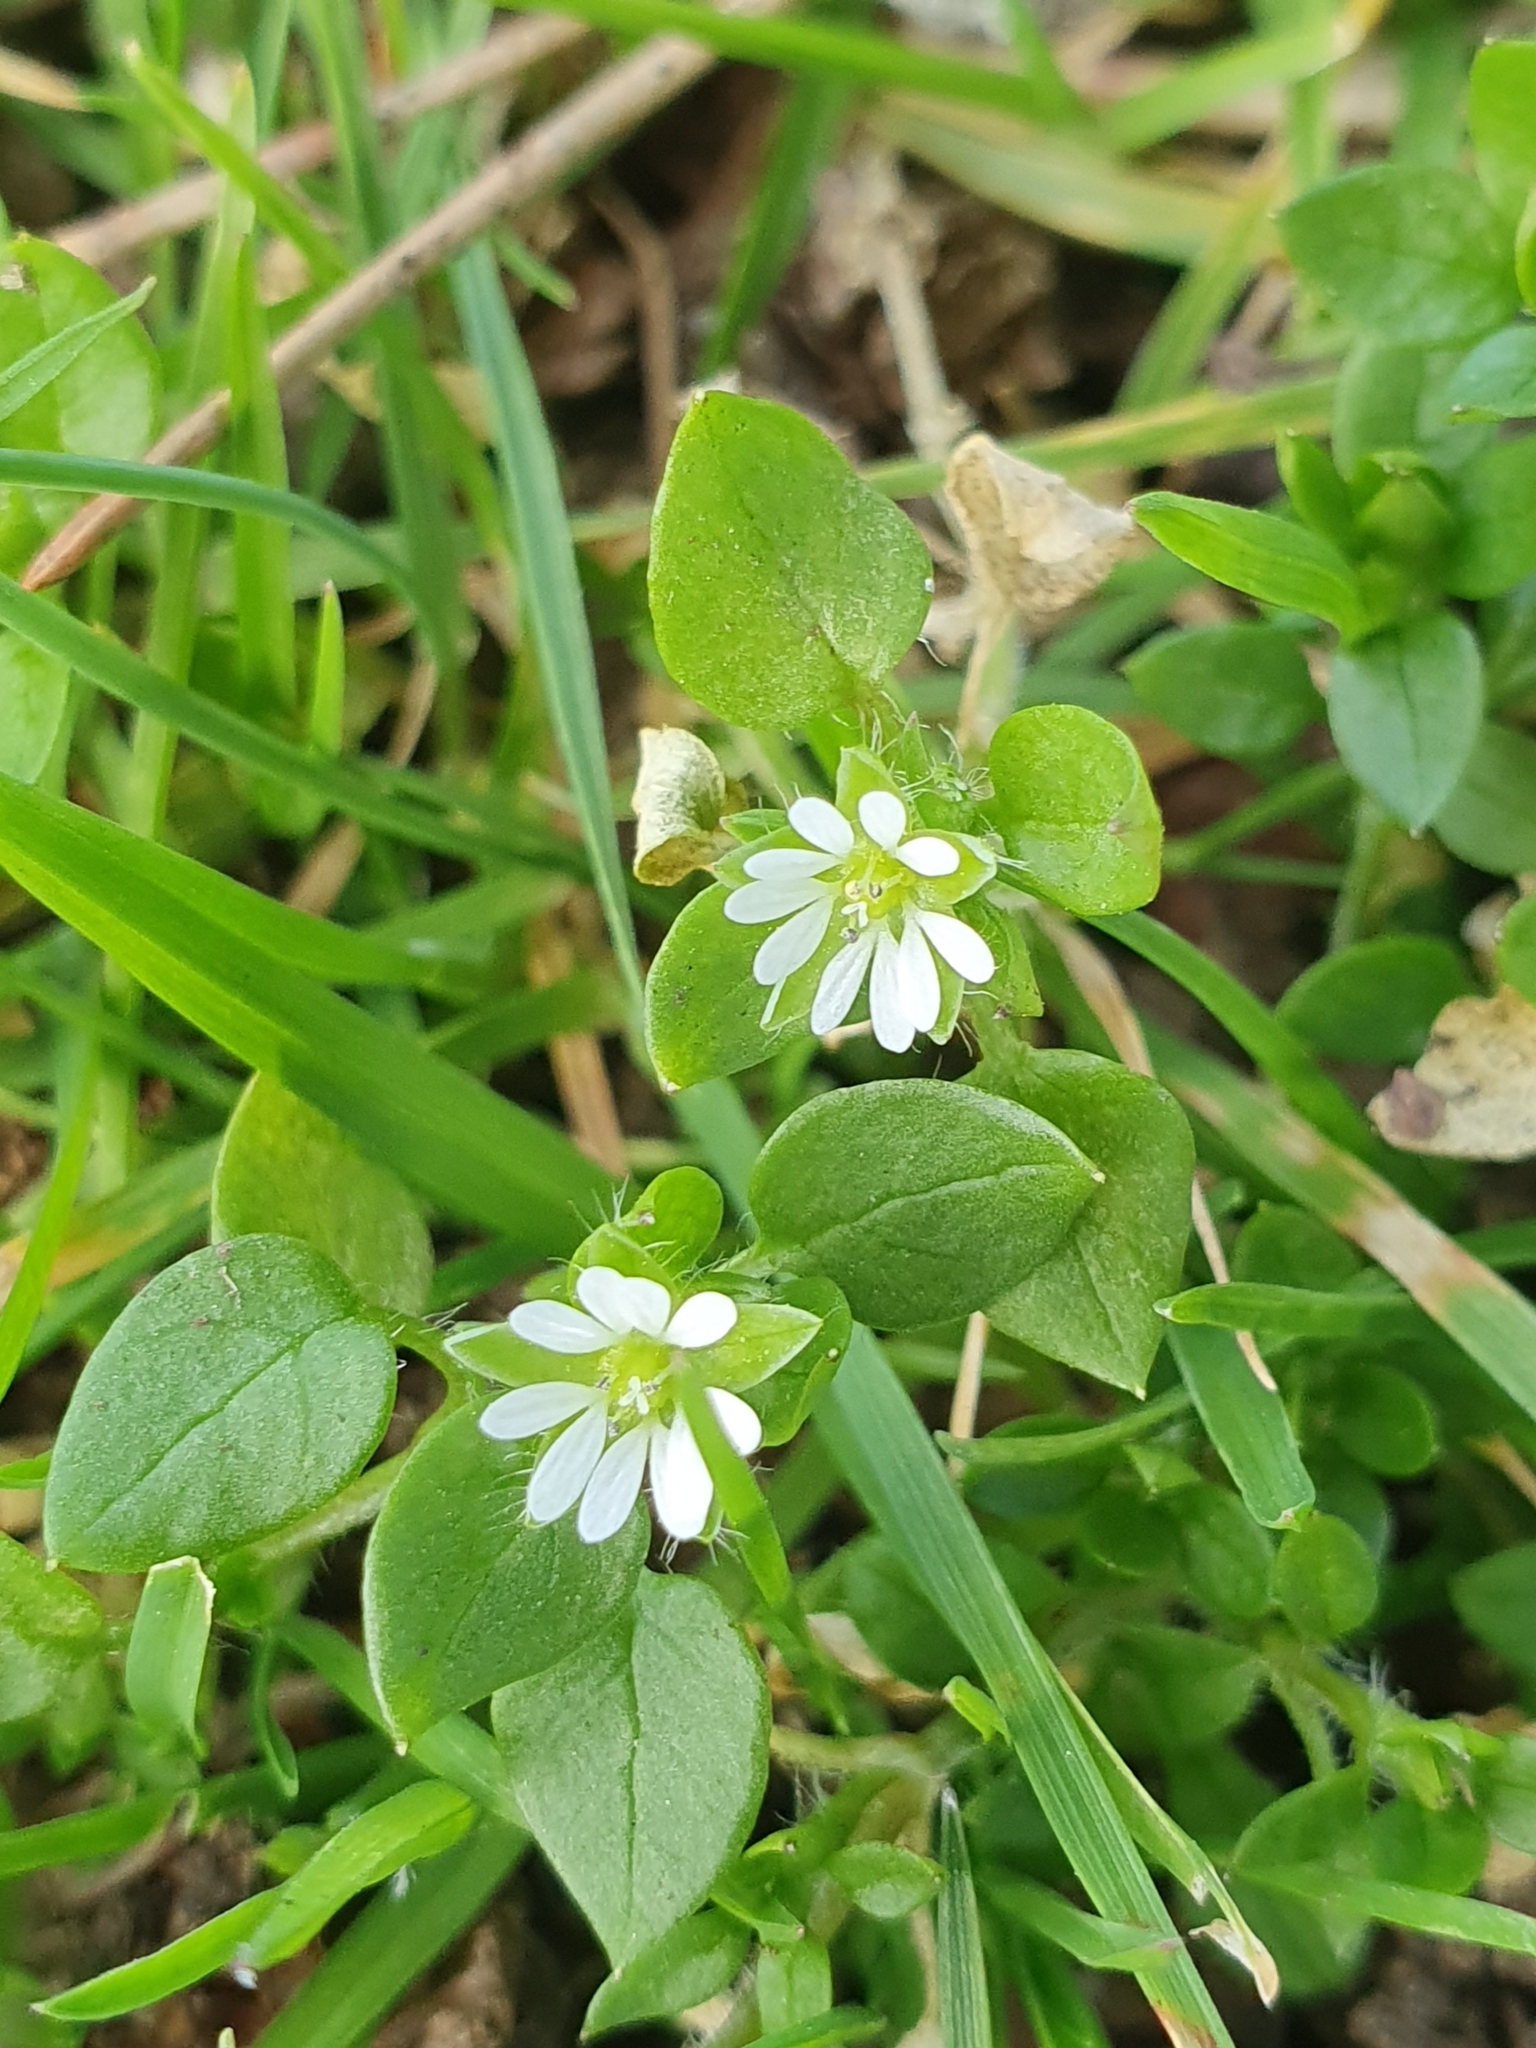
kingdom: Plantae
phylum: Tracheophyta
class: Magnoliopsida
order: Caryophyllales
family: Caryophyllaceae
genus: Stellaria
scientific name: Stellaria media
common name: Common chickweed
